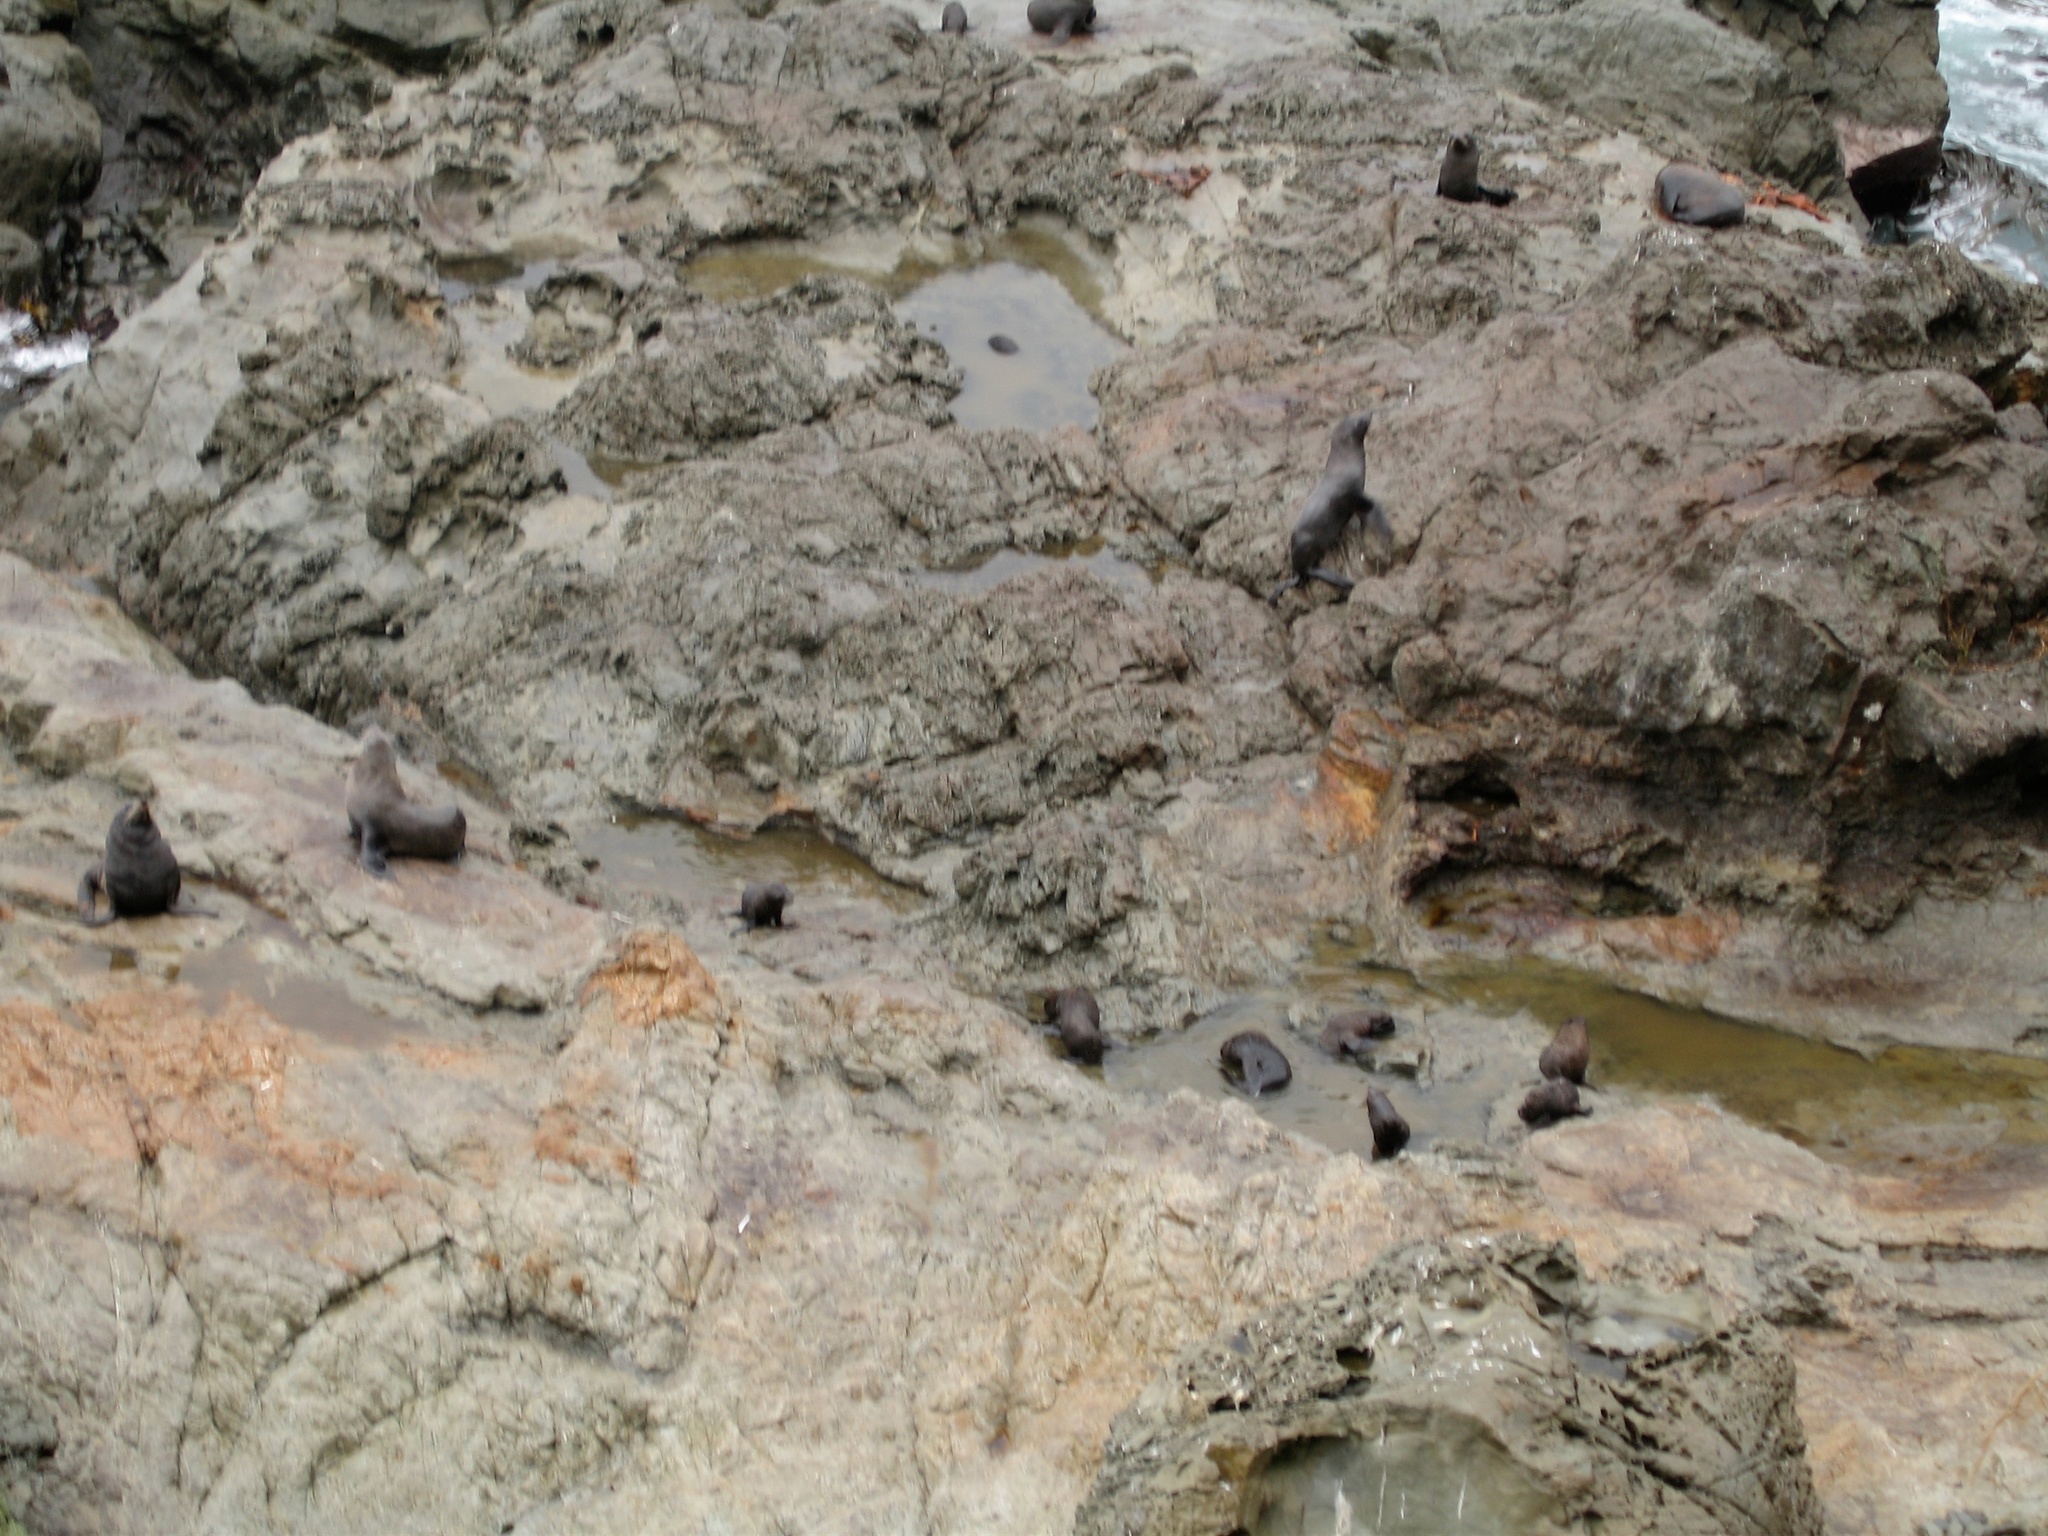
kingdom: Animalia
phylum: Chordata
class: Mammalia
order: Carnivora
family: Otariidae
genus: Arctocephalus
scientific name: Arctocephalus forsteri
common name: New zealand fur seal
